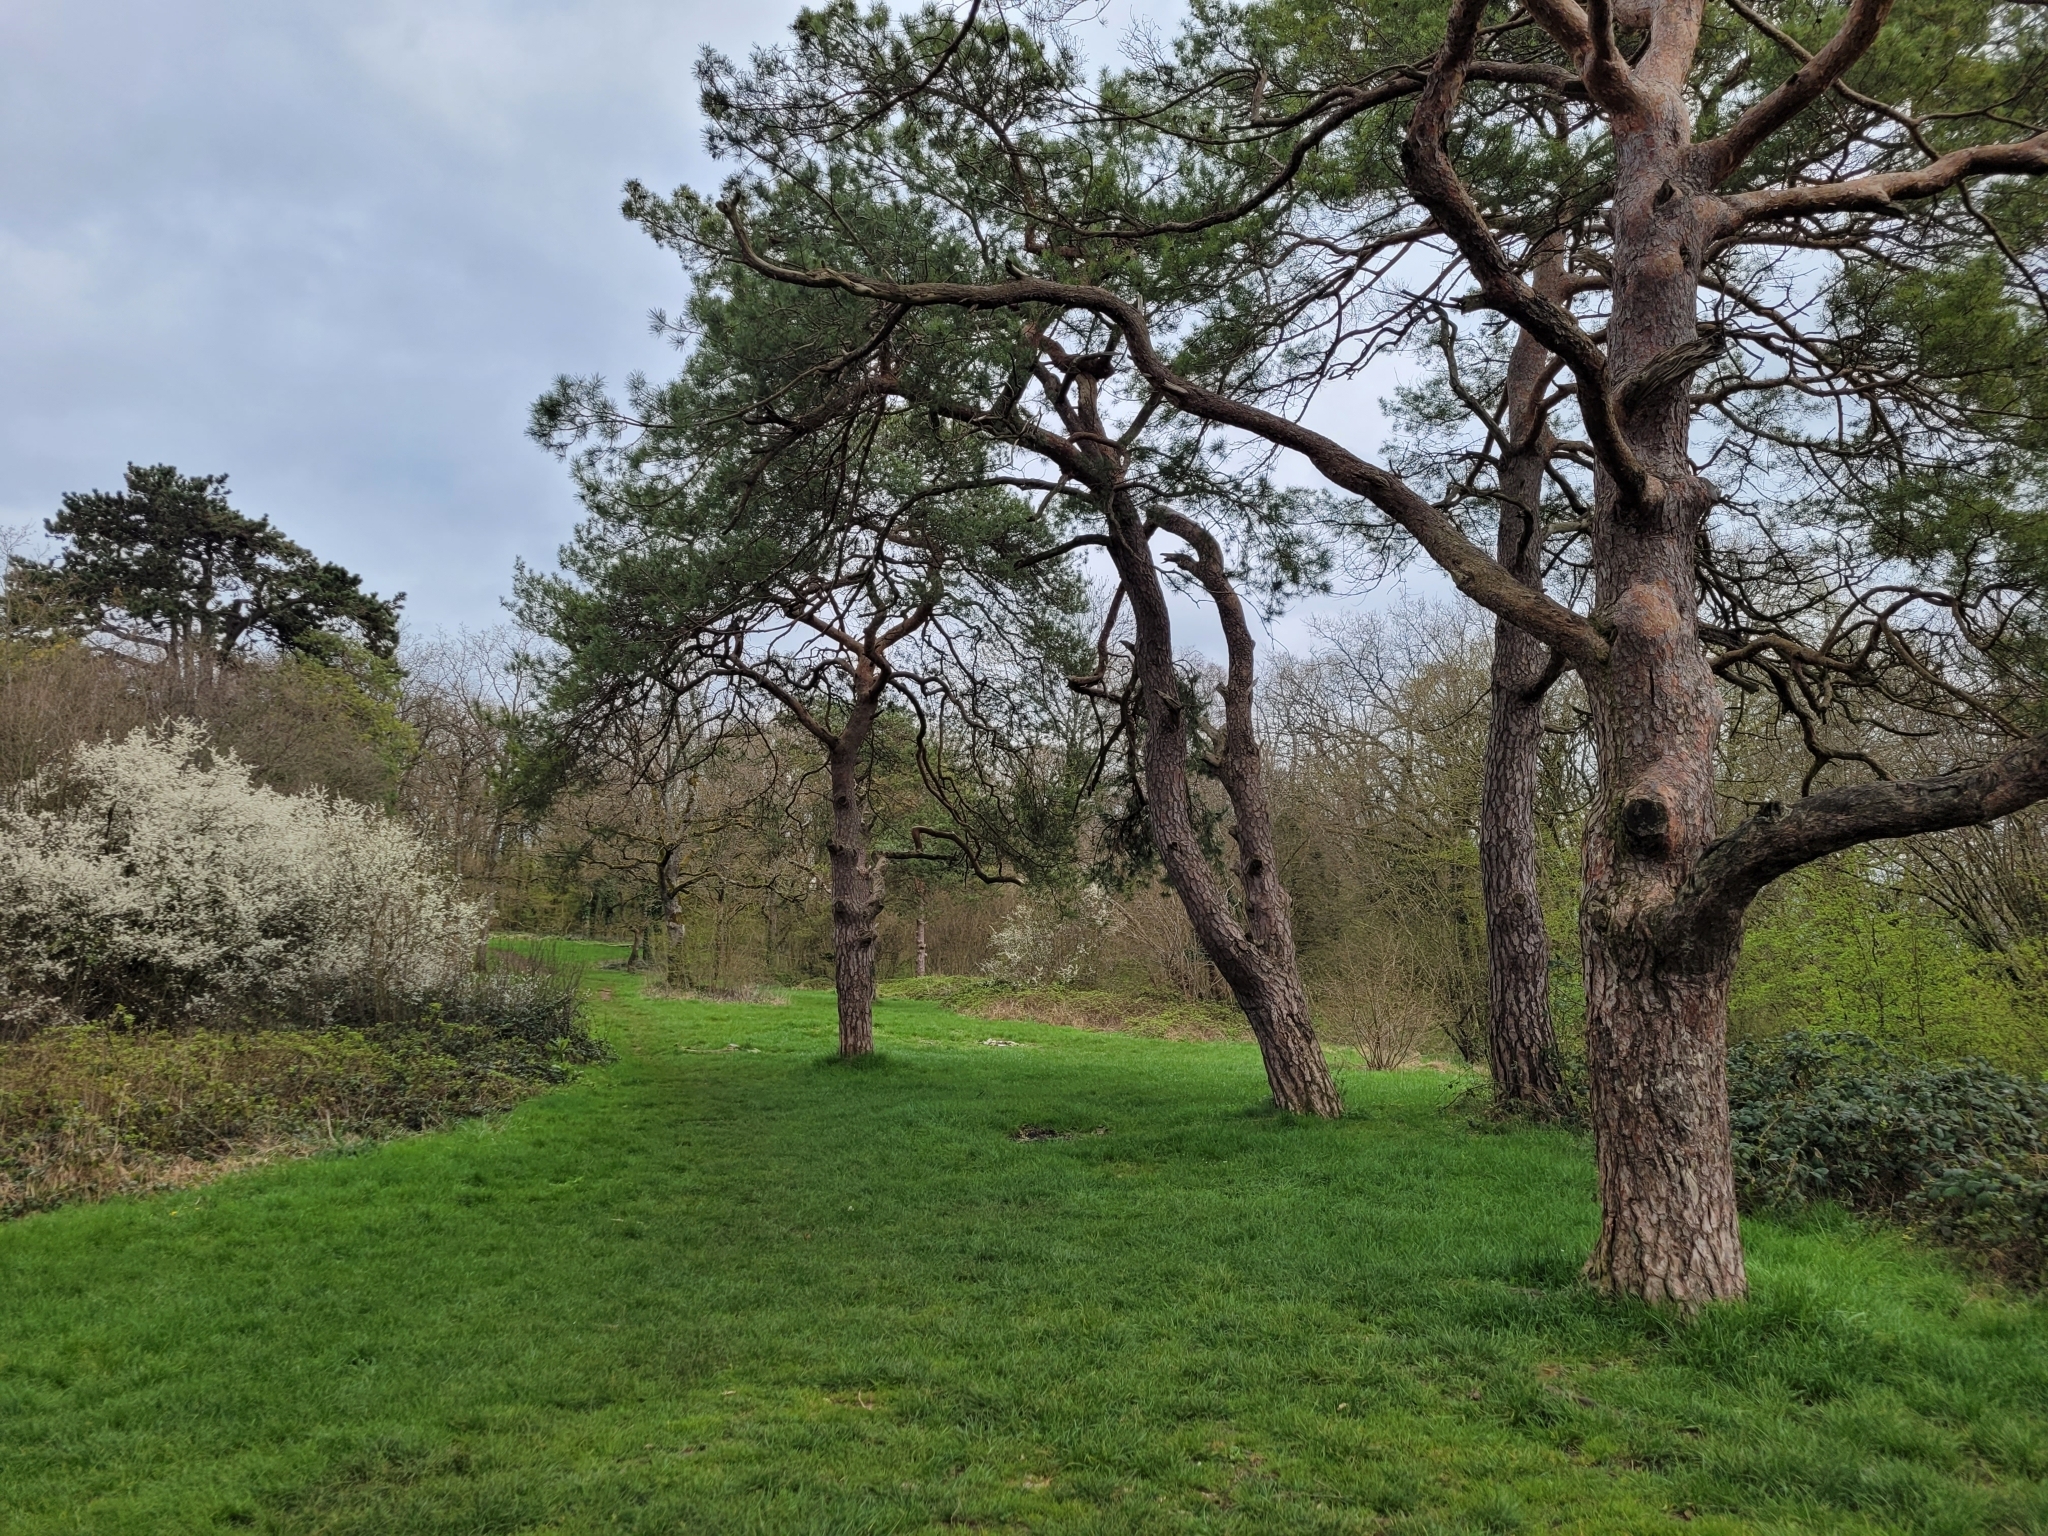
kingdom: Plantae
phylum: Tracheophyta
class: Pinopsida
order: Pinales
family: Pinaceae
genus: Pinus
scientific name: Pinus sylvestris
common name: Scots pine
